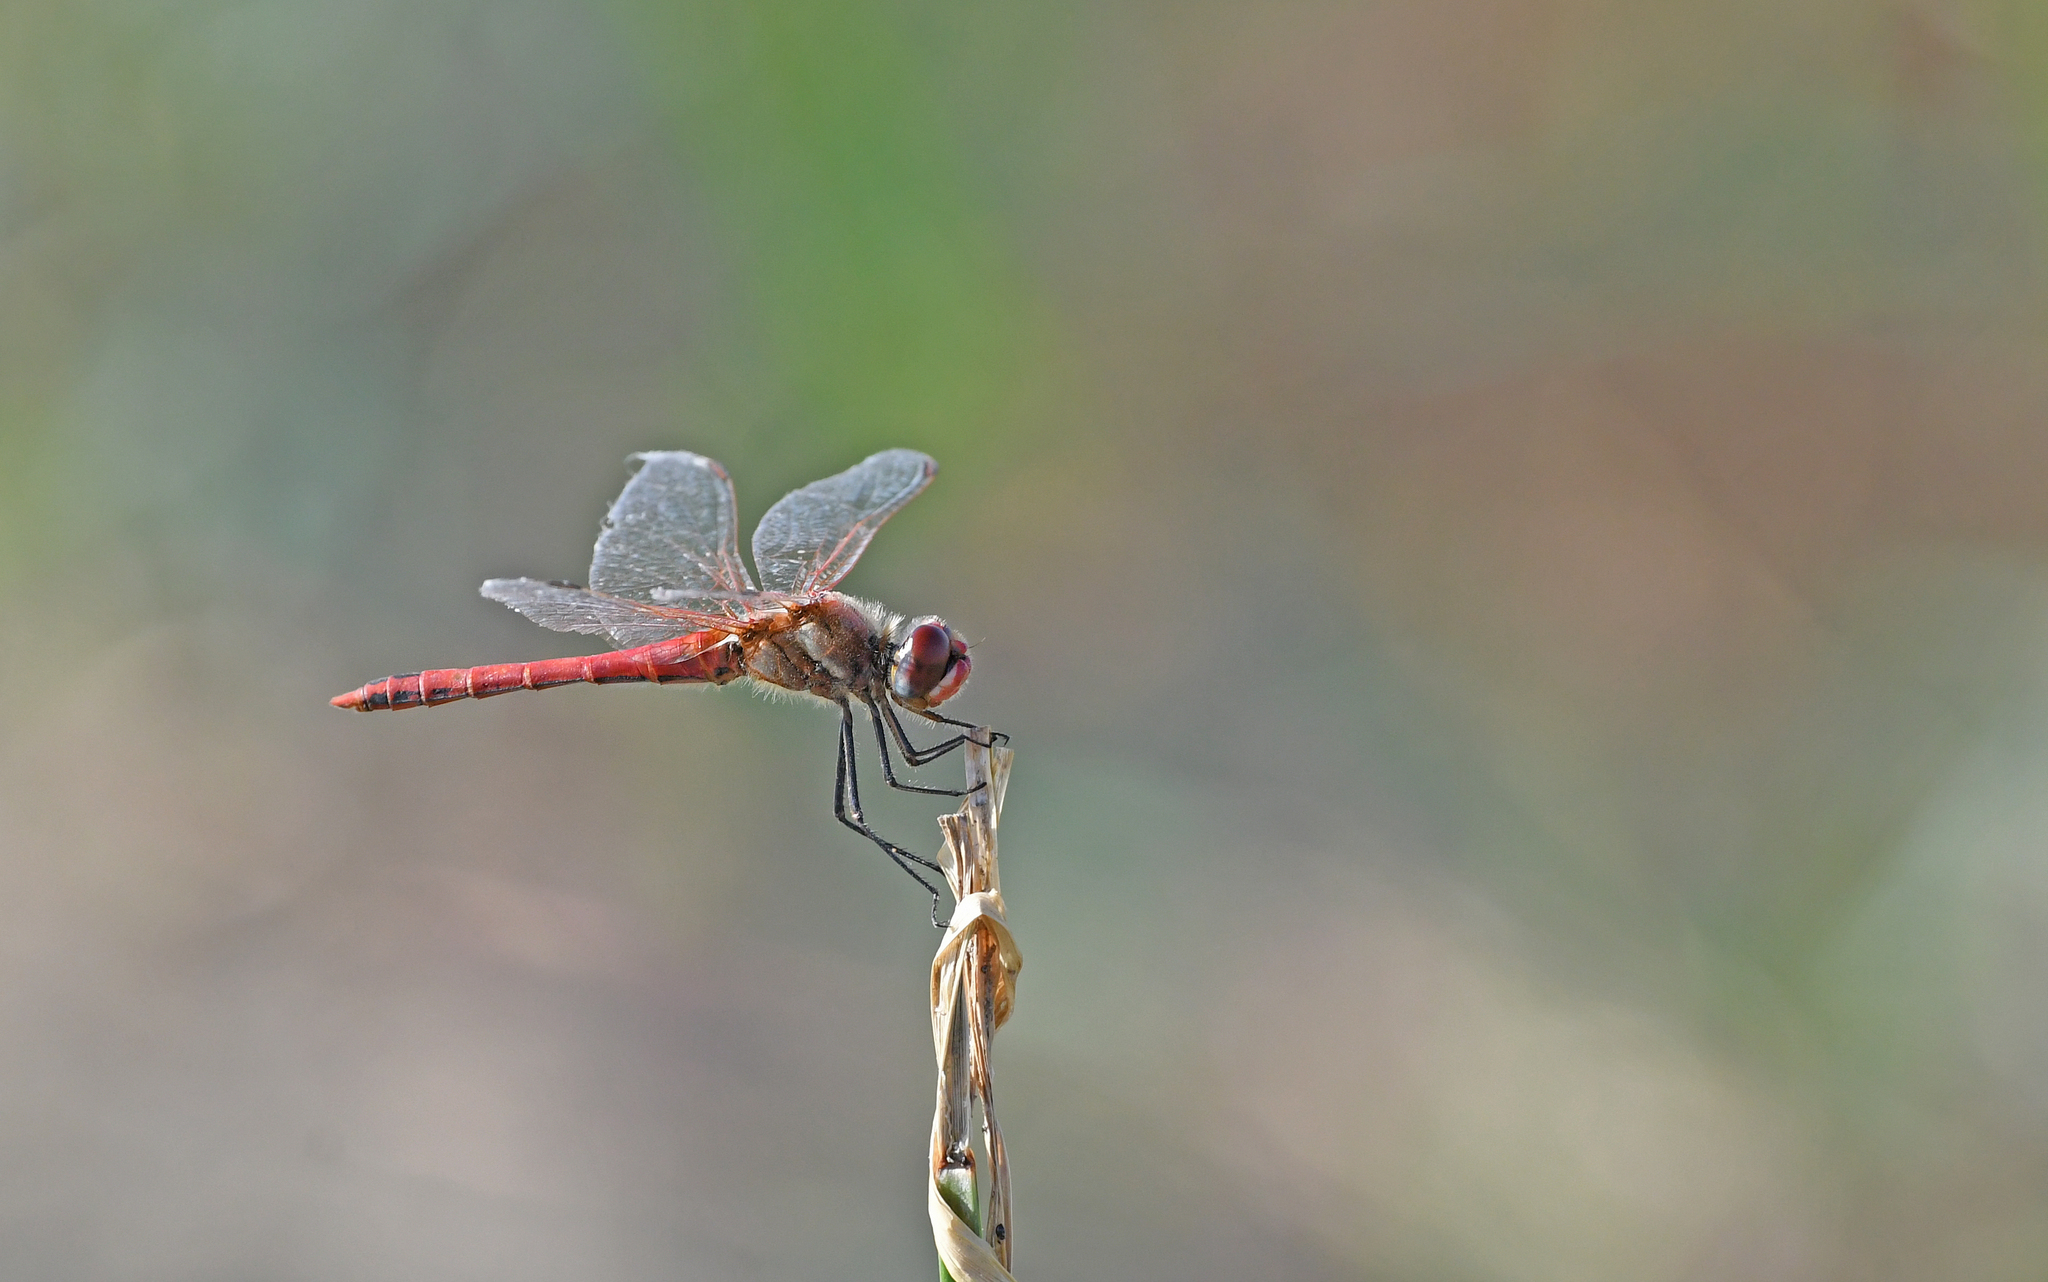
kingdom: Animalia
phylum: Arthropoda
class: Insecta
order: Odonata
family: Libellulidae
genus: Sympetrum
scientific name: Sympetrum fonscolombii
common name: Red-veined darter
